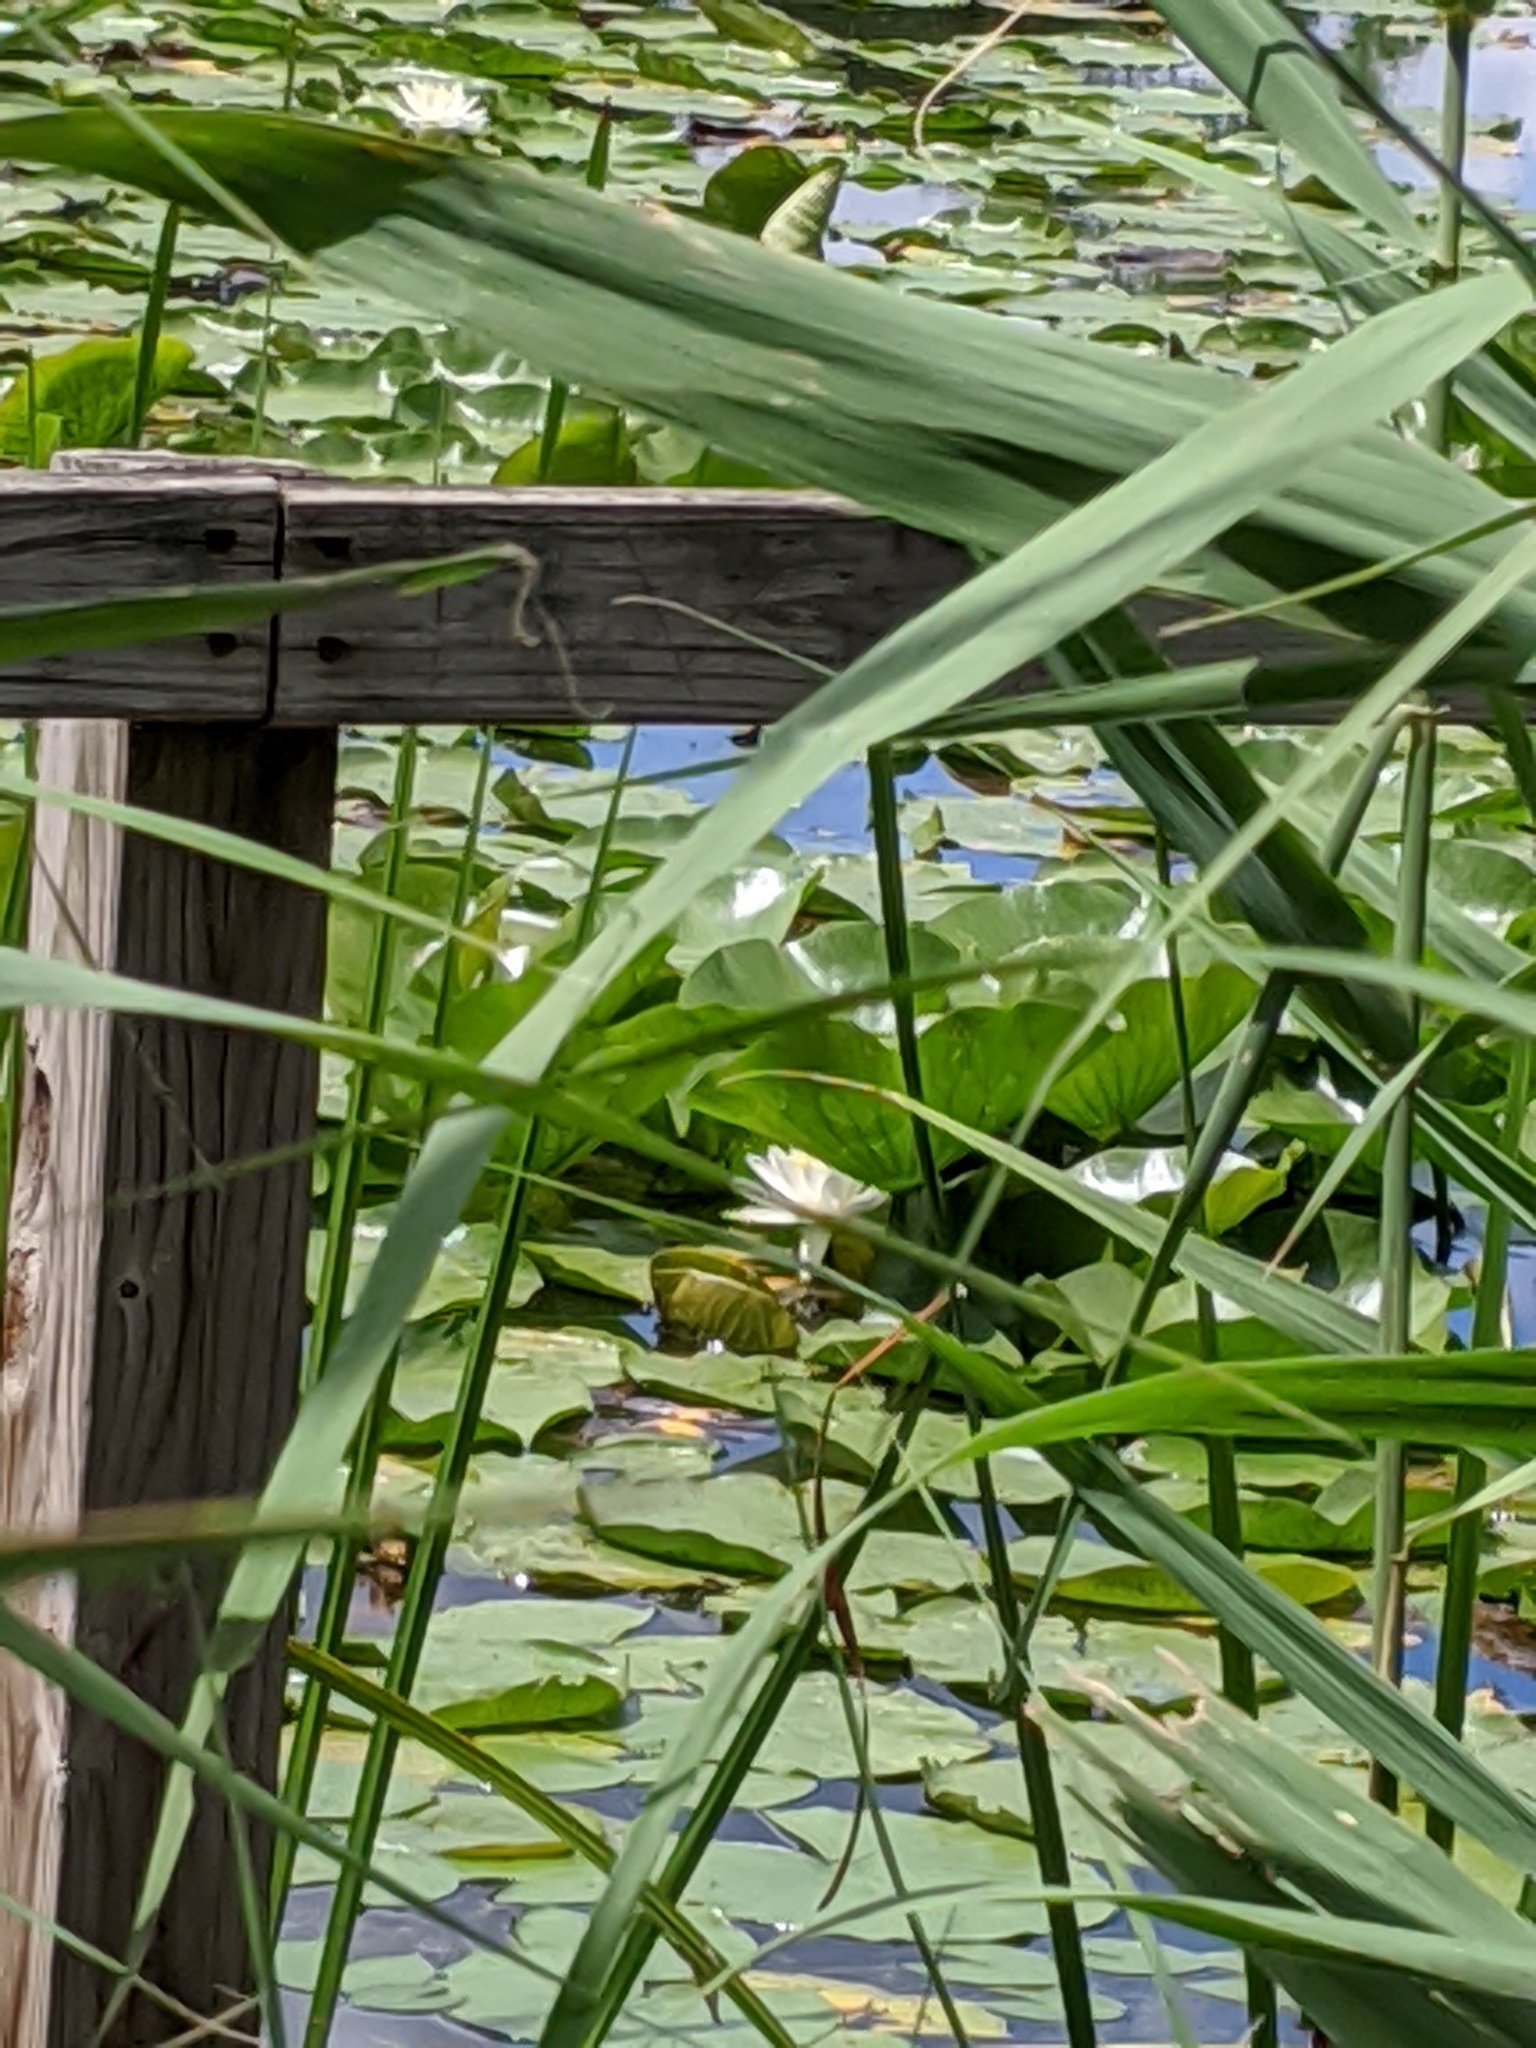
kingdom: Plantae
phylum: Tracheophyta
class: Magnoliopsida
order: Nymphaeales
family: Nymphaeaceae
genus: Nymphaea
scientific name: Nymphaea odorata
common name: Fragrant water-lily
